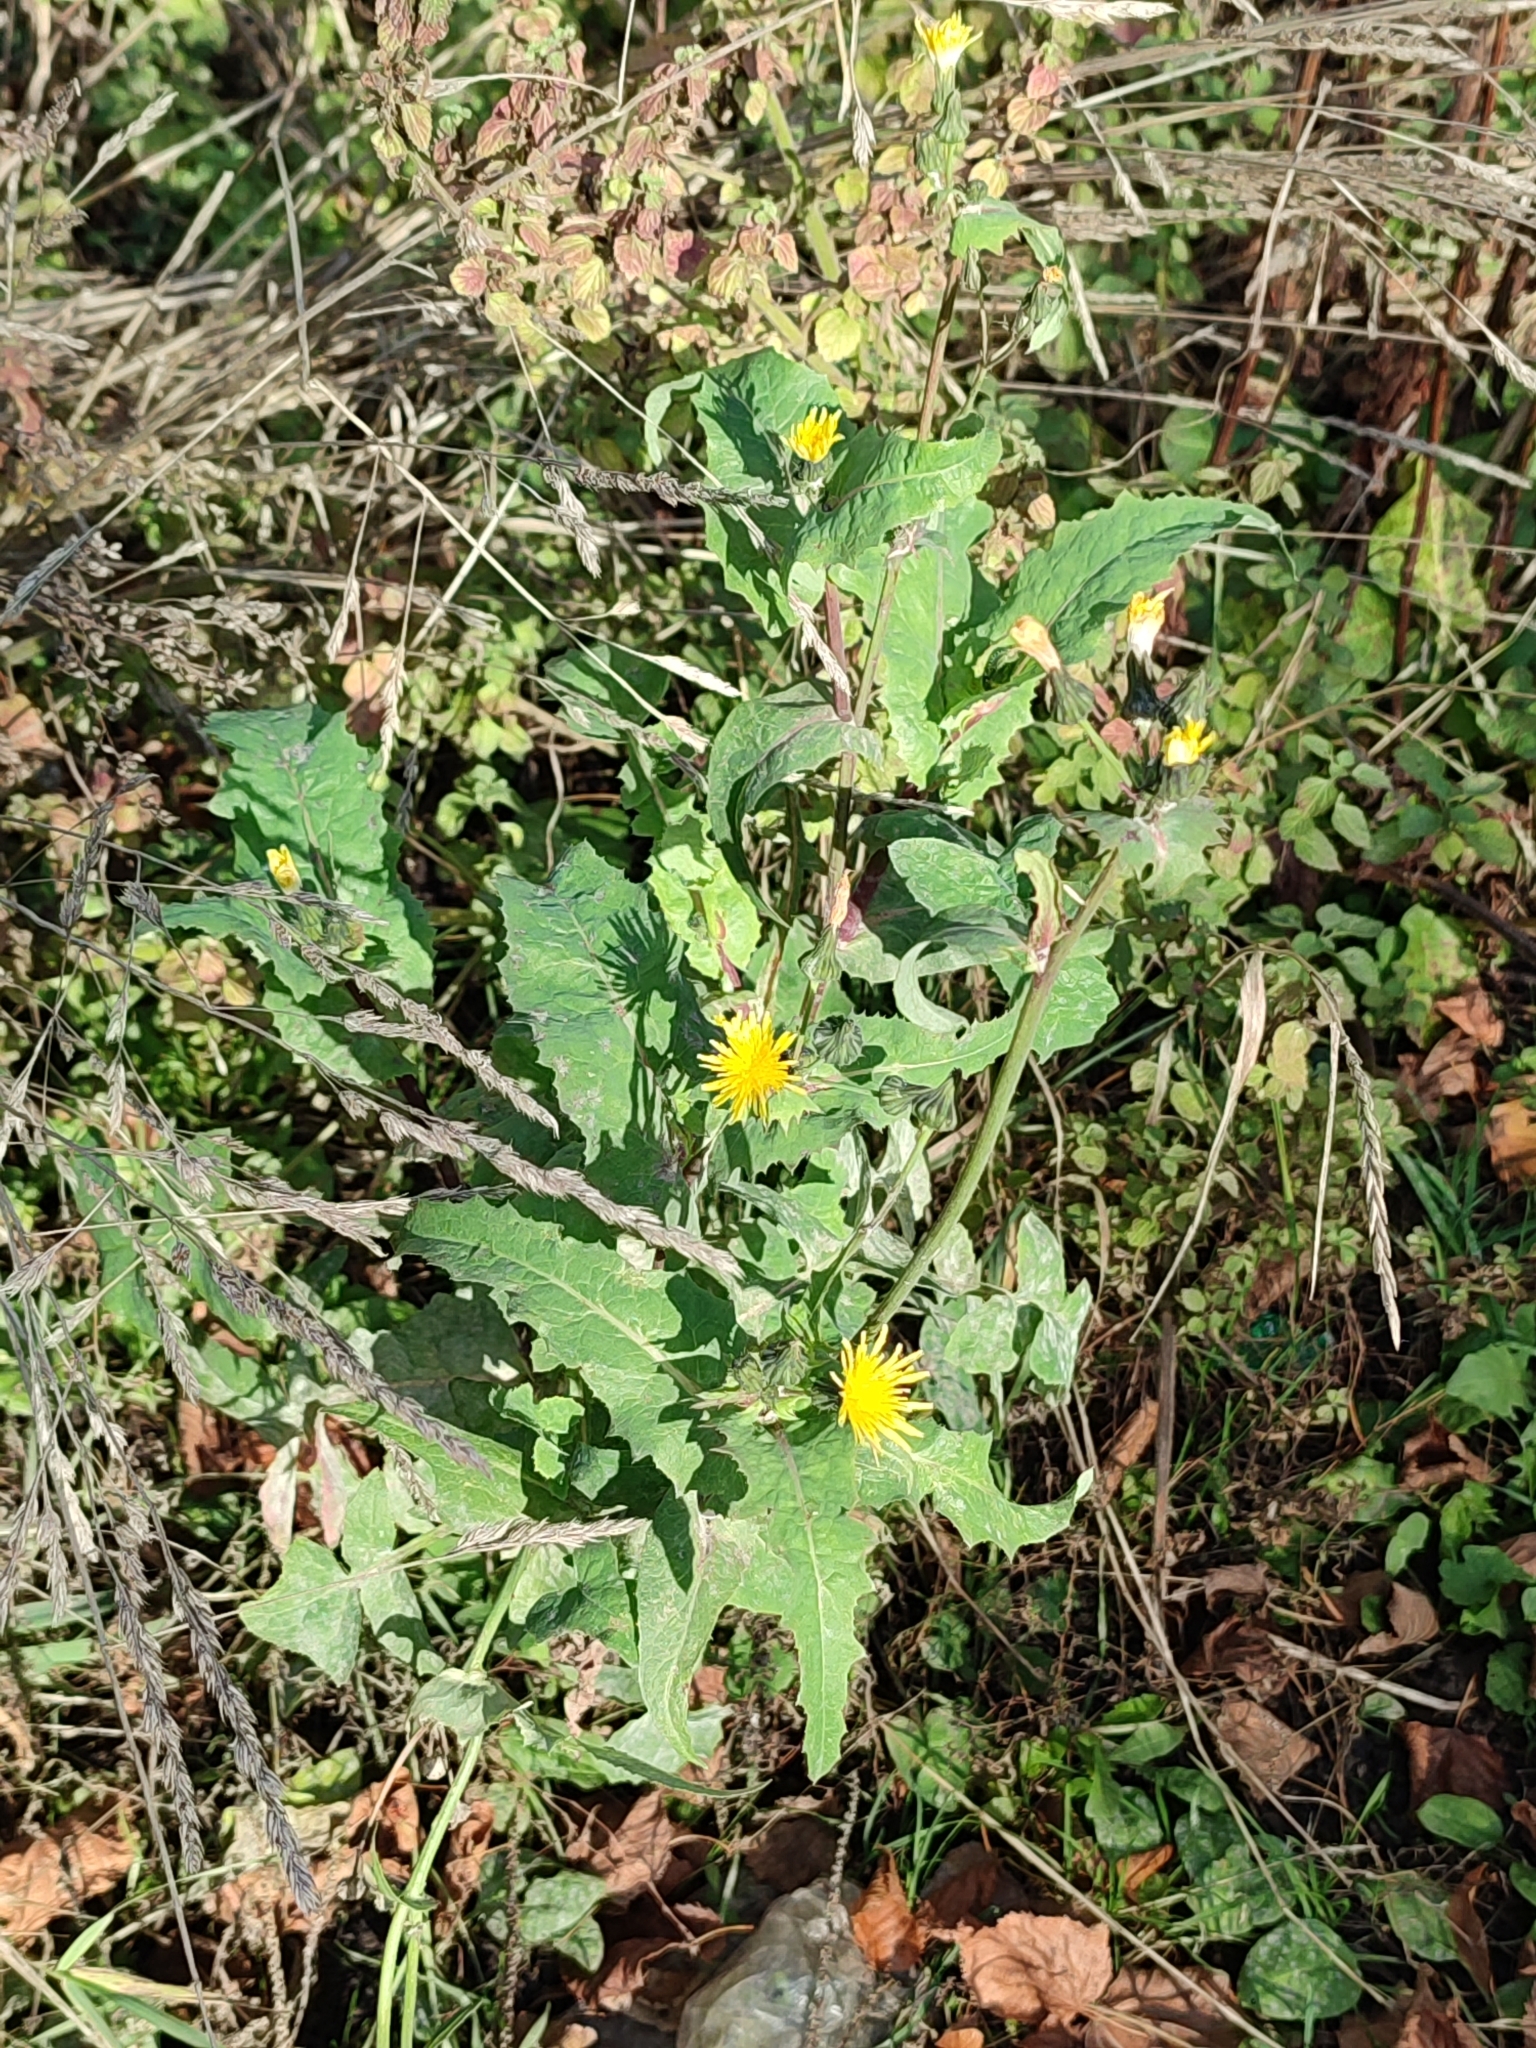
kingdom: Plantae
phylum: Tracheophyta
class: Magnoliopsida
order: Asterales
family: Asteraceae
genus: Sonchus
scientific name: Sonchus oleraceus
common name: Common sowthistle
